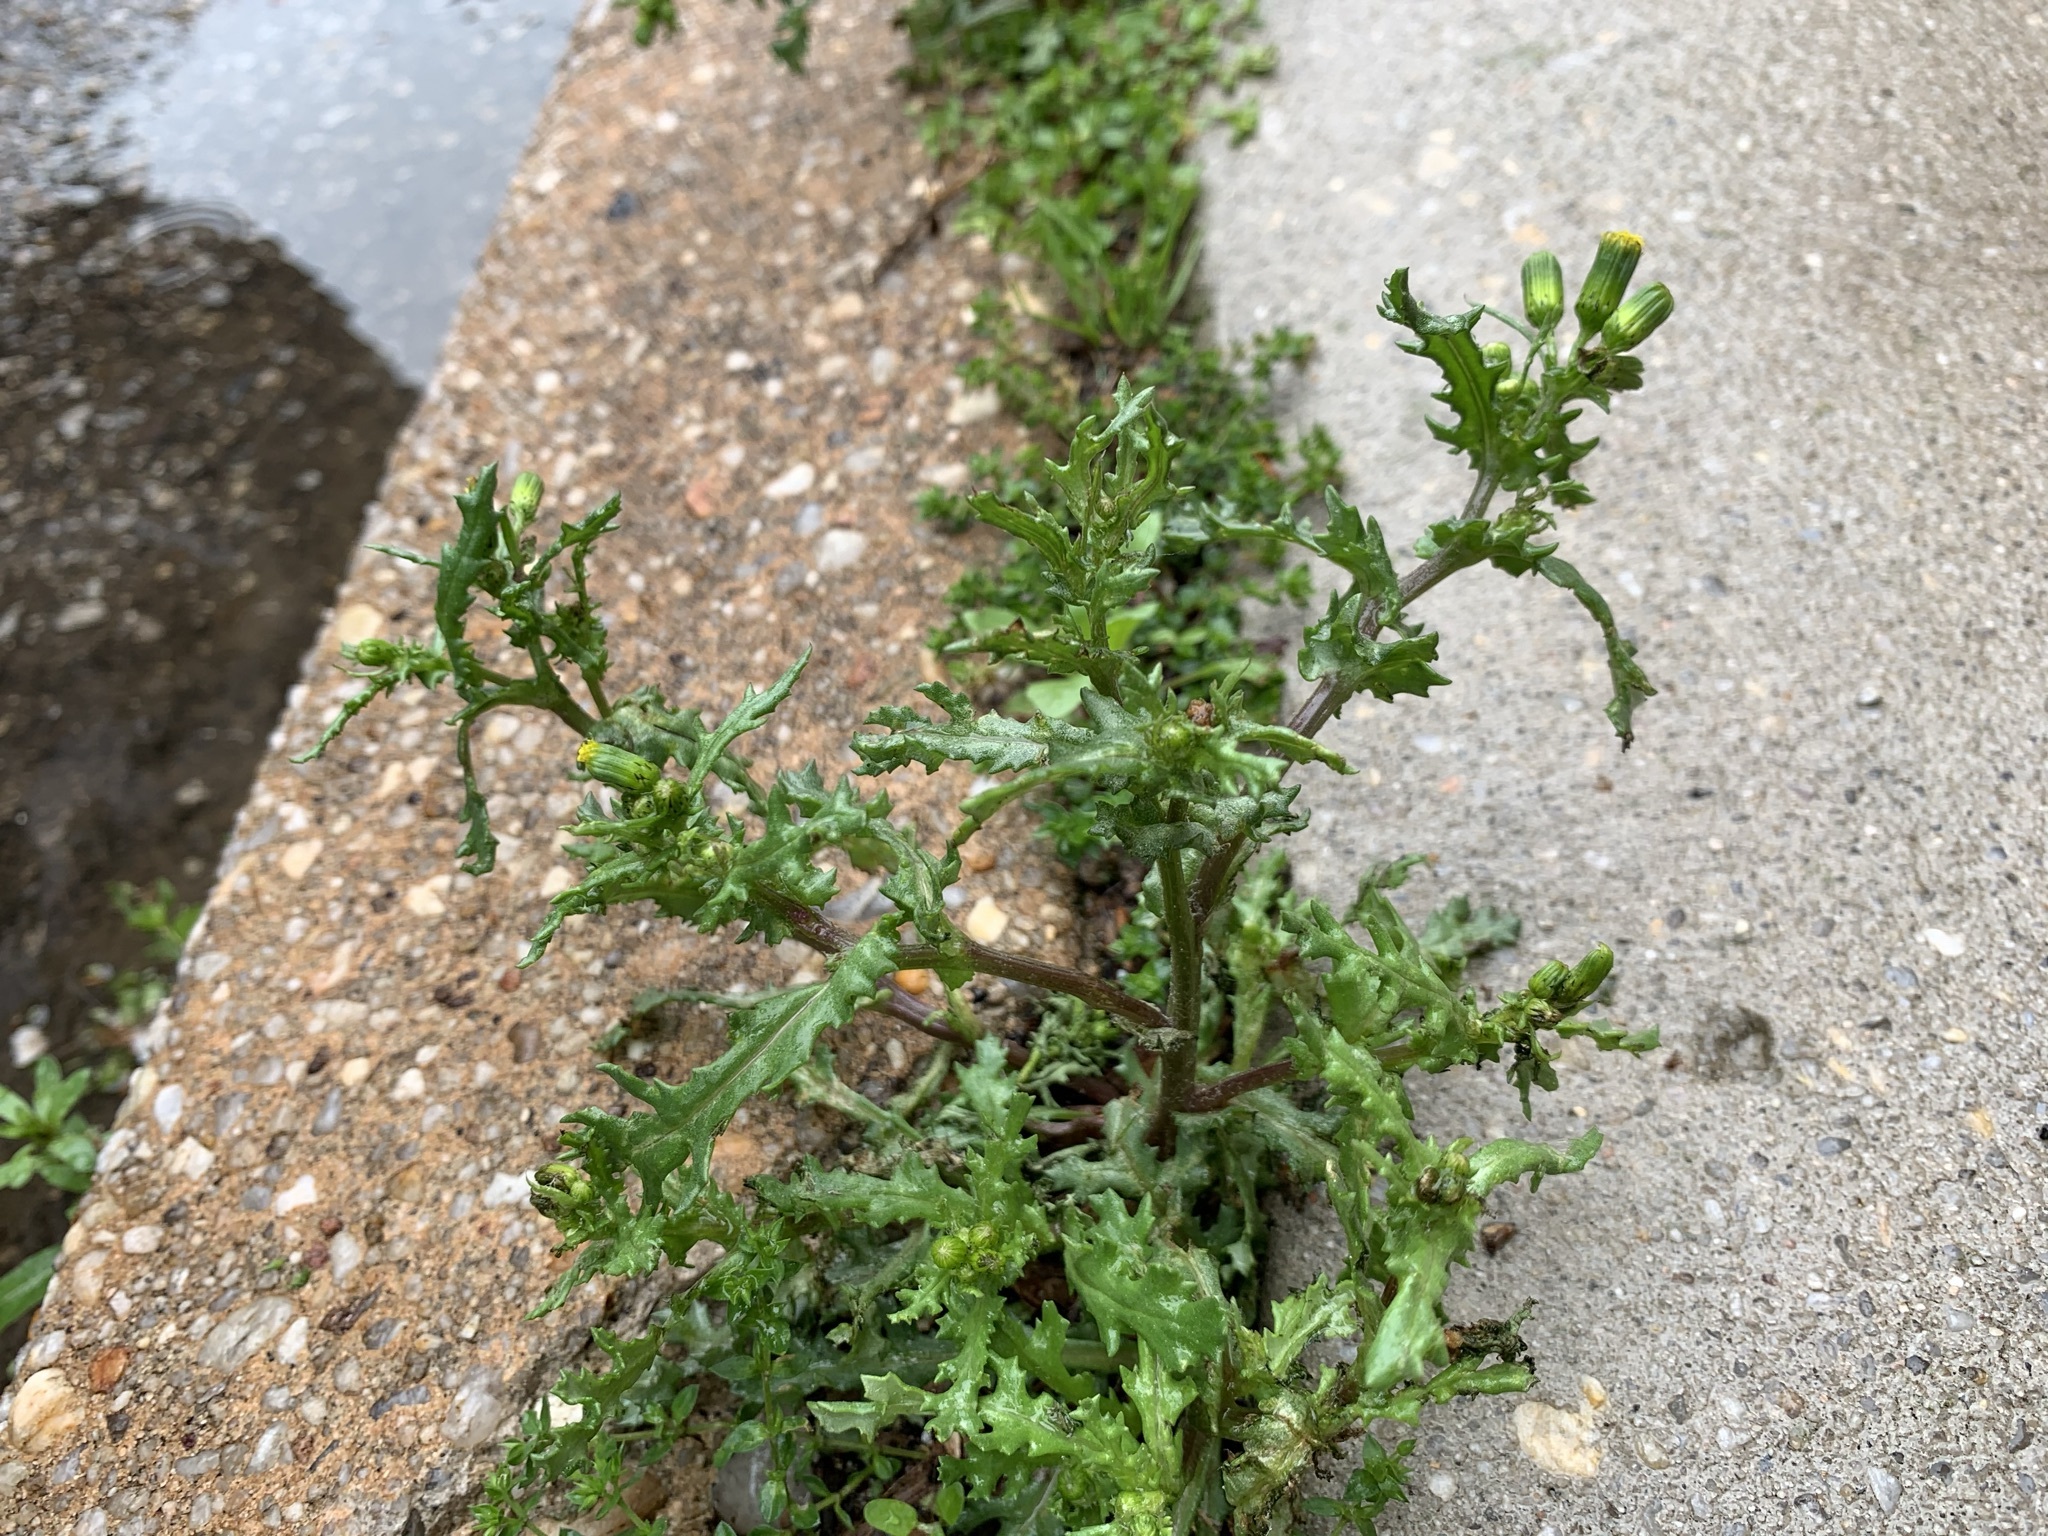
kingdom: Plantae
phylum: Tracheophyta
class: Magnoliopsida
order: Asterales
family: Asteraceae
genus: Senecio
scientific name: Senecio vulgaris
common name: Old-man-in-the-spring
